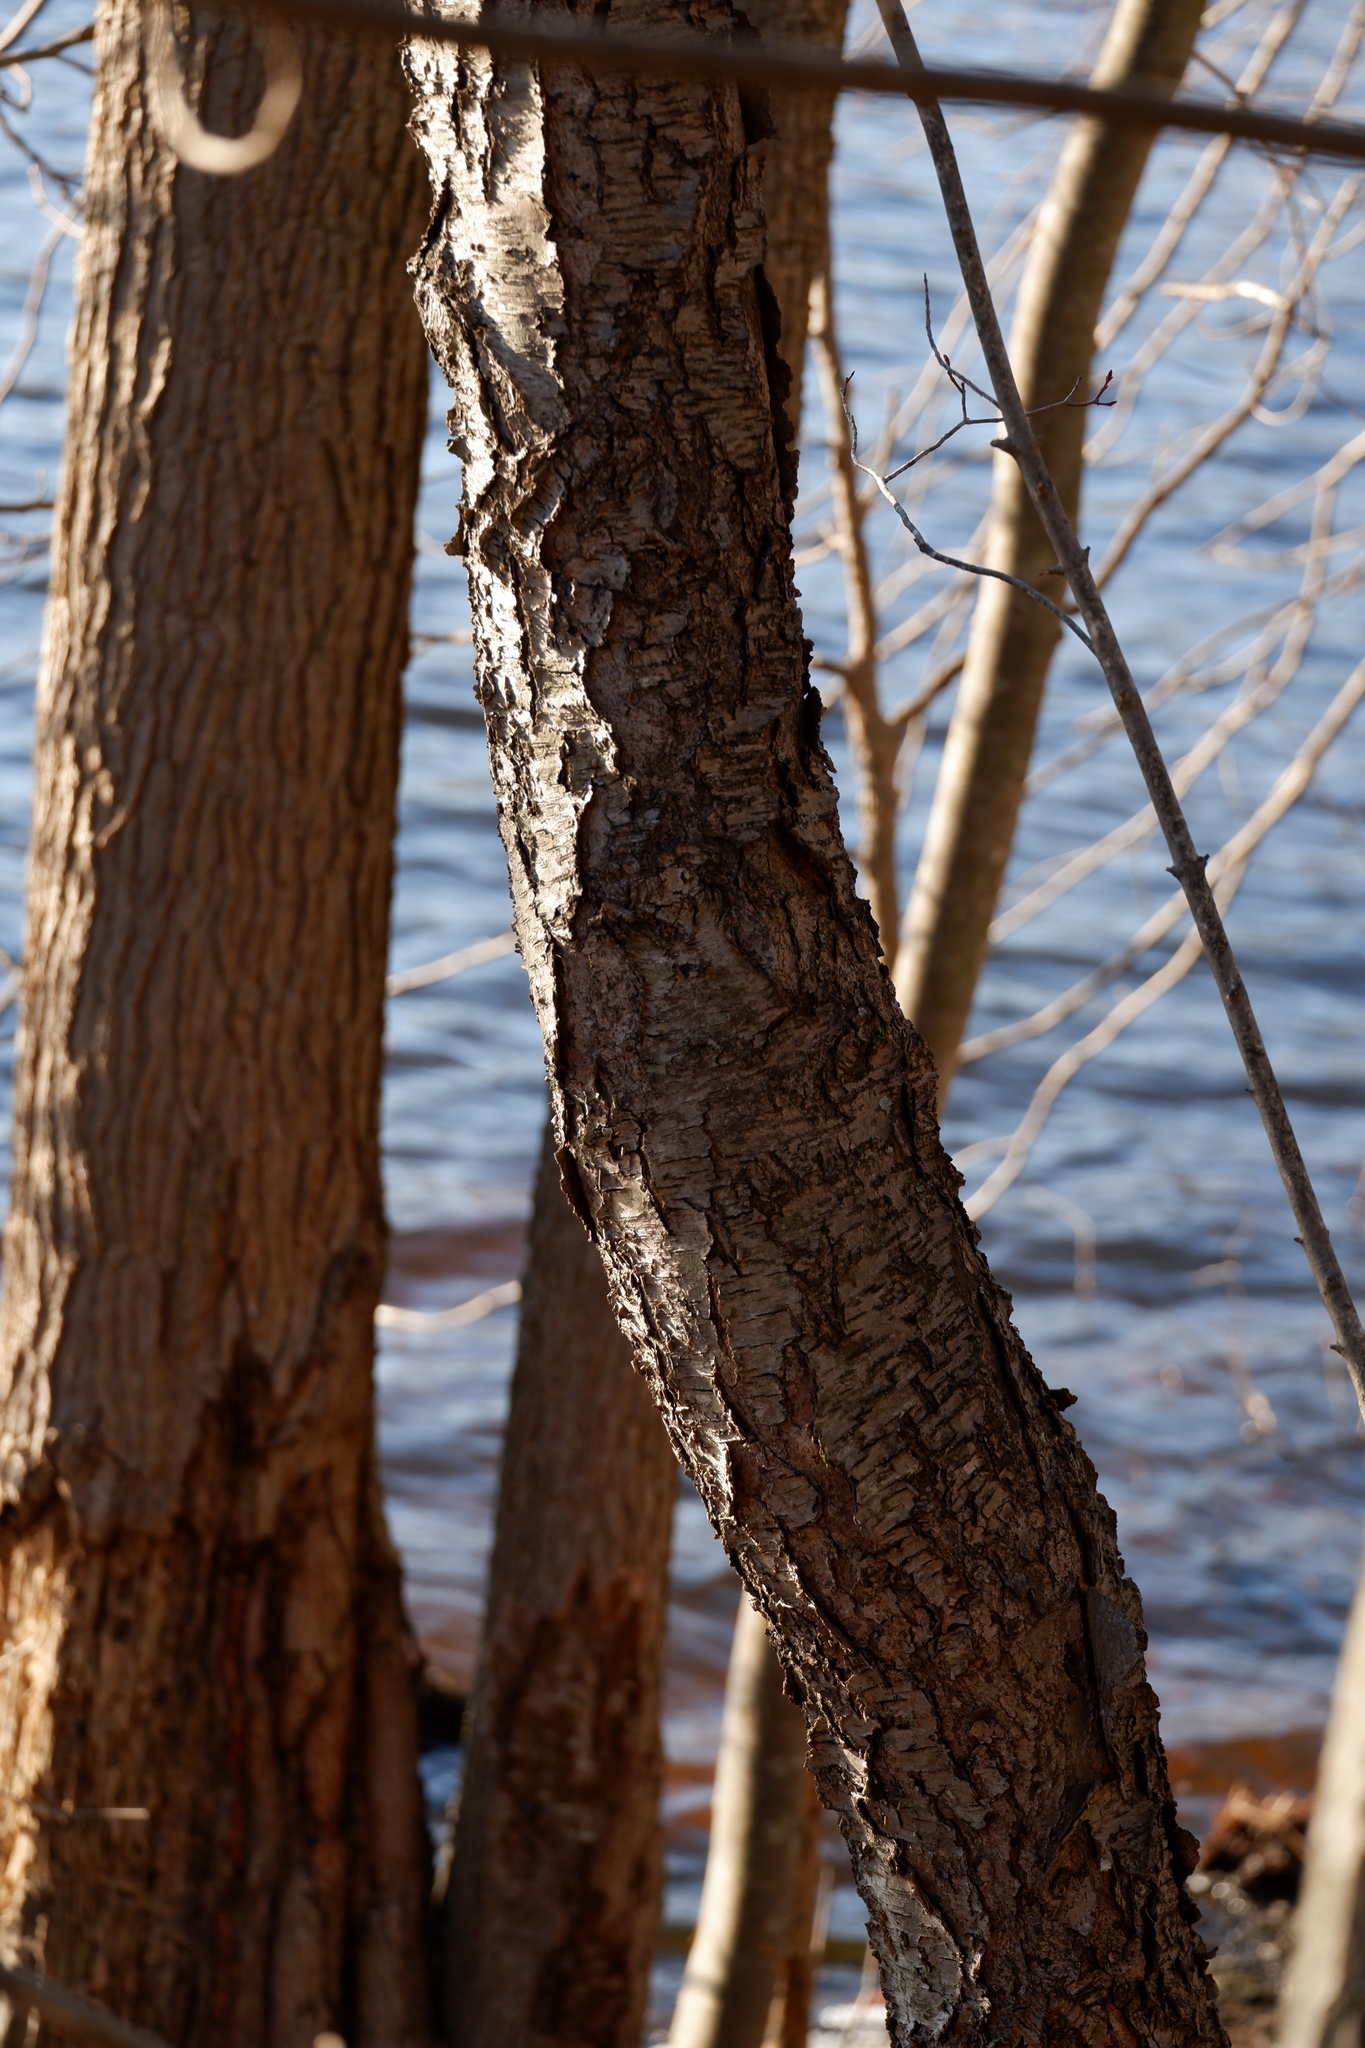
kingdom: Plantae
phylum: Tracheophyta
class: Magnoliopsida
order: Rosales
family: Rosaceae
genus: Prunus
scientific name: Prunus serotina
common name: Black cherry
